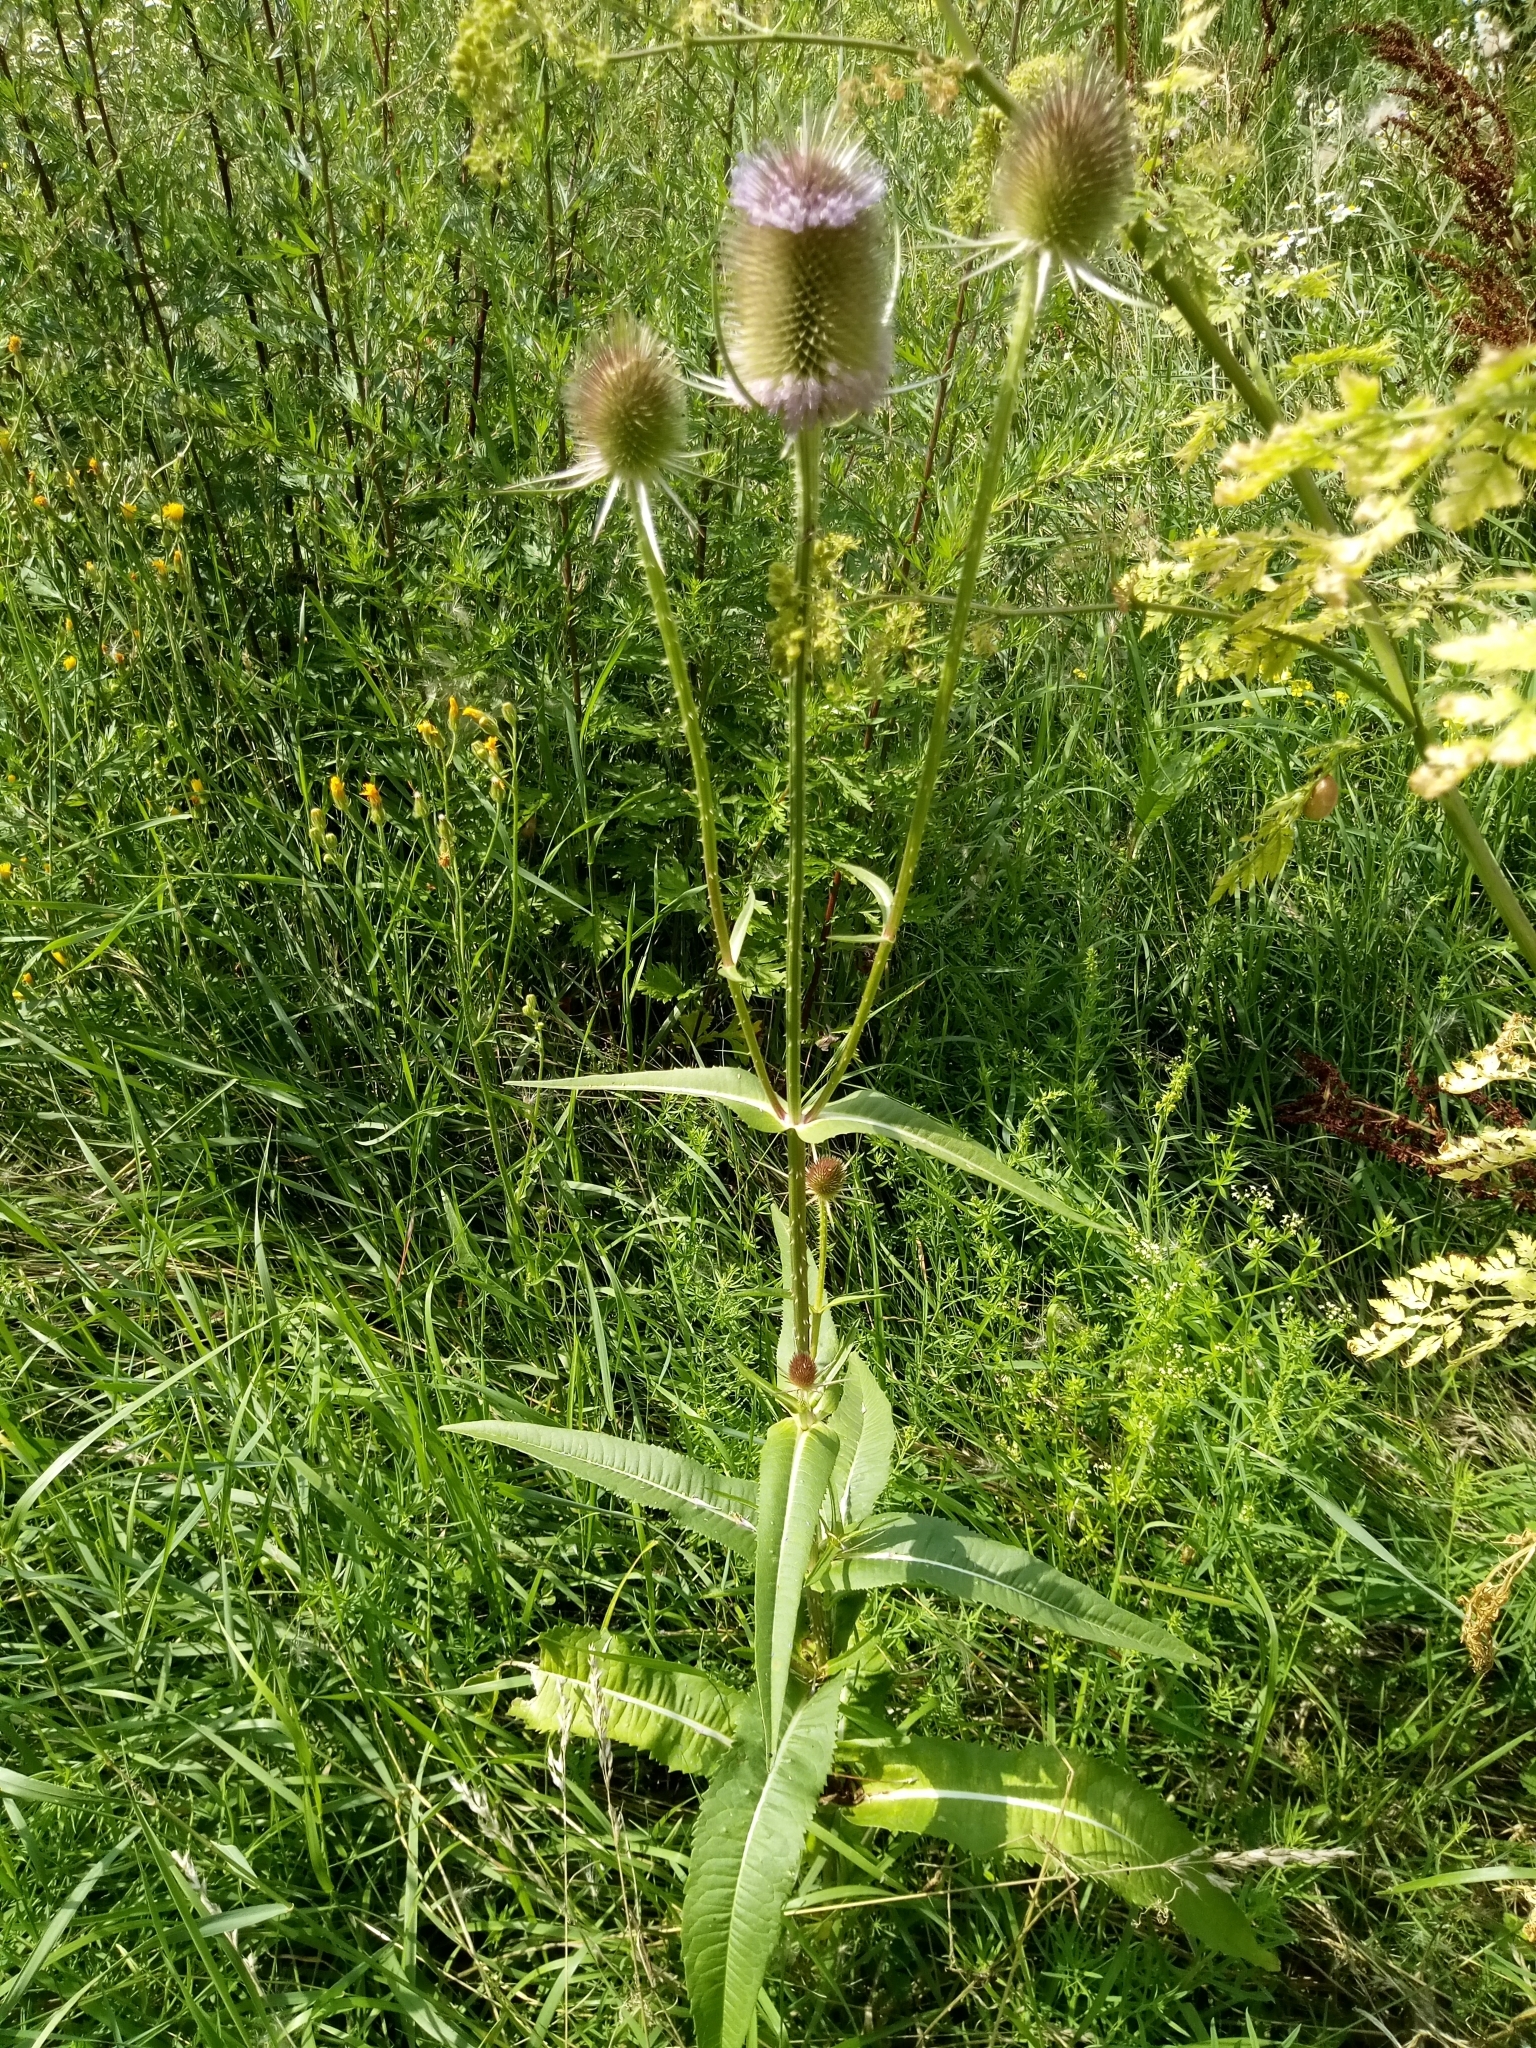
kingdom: Plantae
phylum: Tracheophyta
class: Magnoliopsida
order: Dipsacales
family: Caprifoliaceae
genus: Dipsacus
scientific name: Dipsacus fullonum
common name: Teasel
